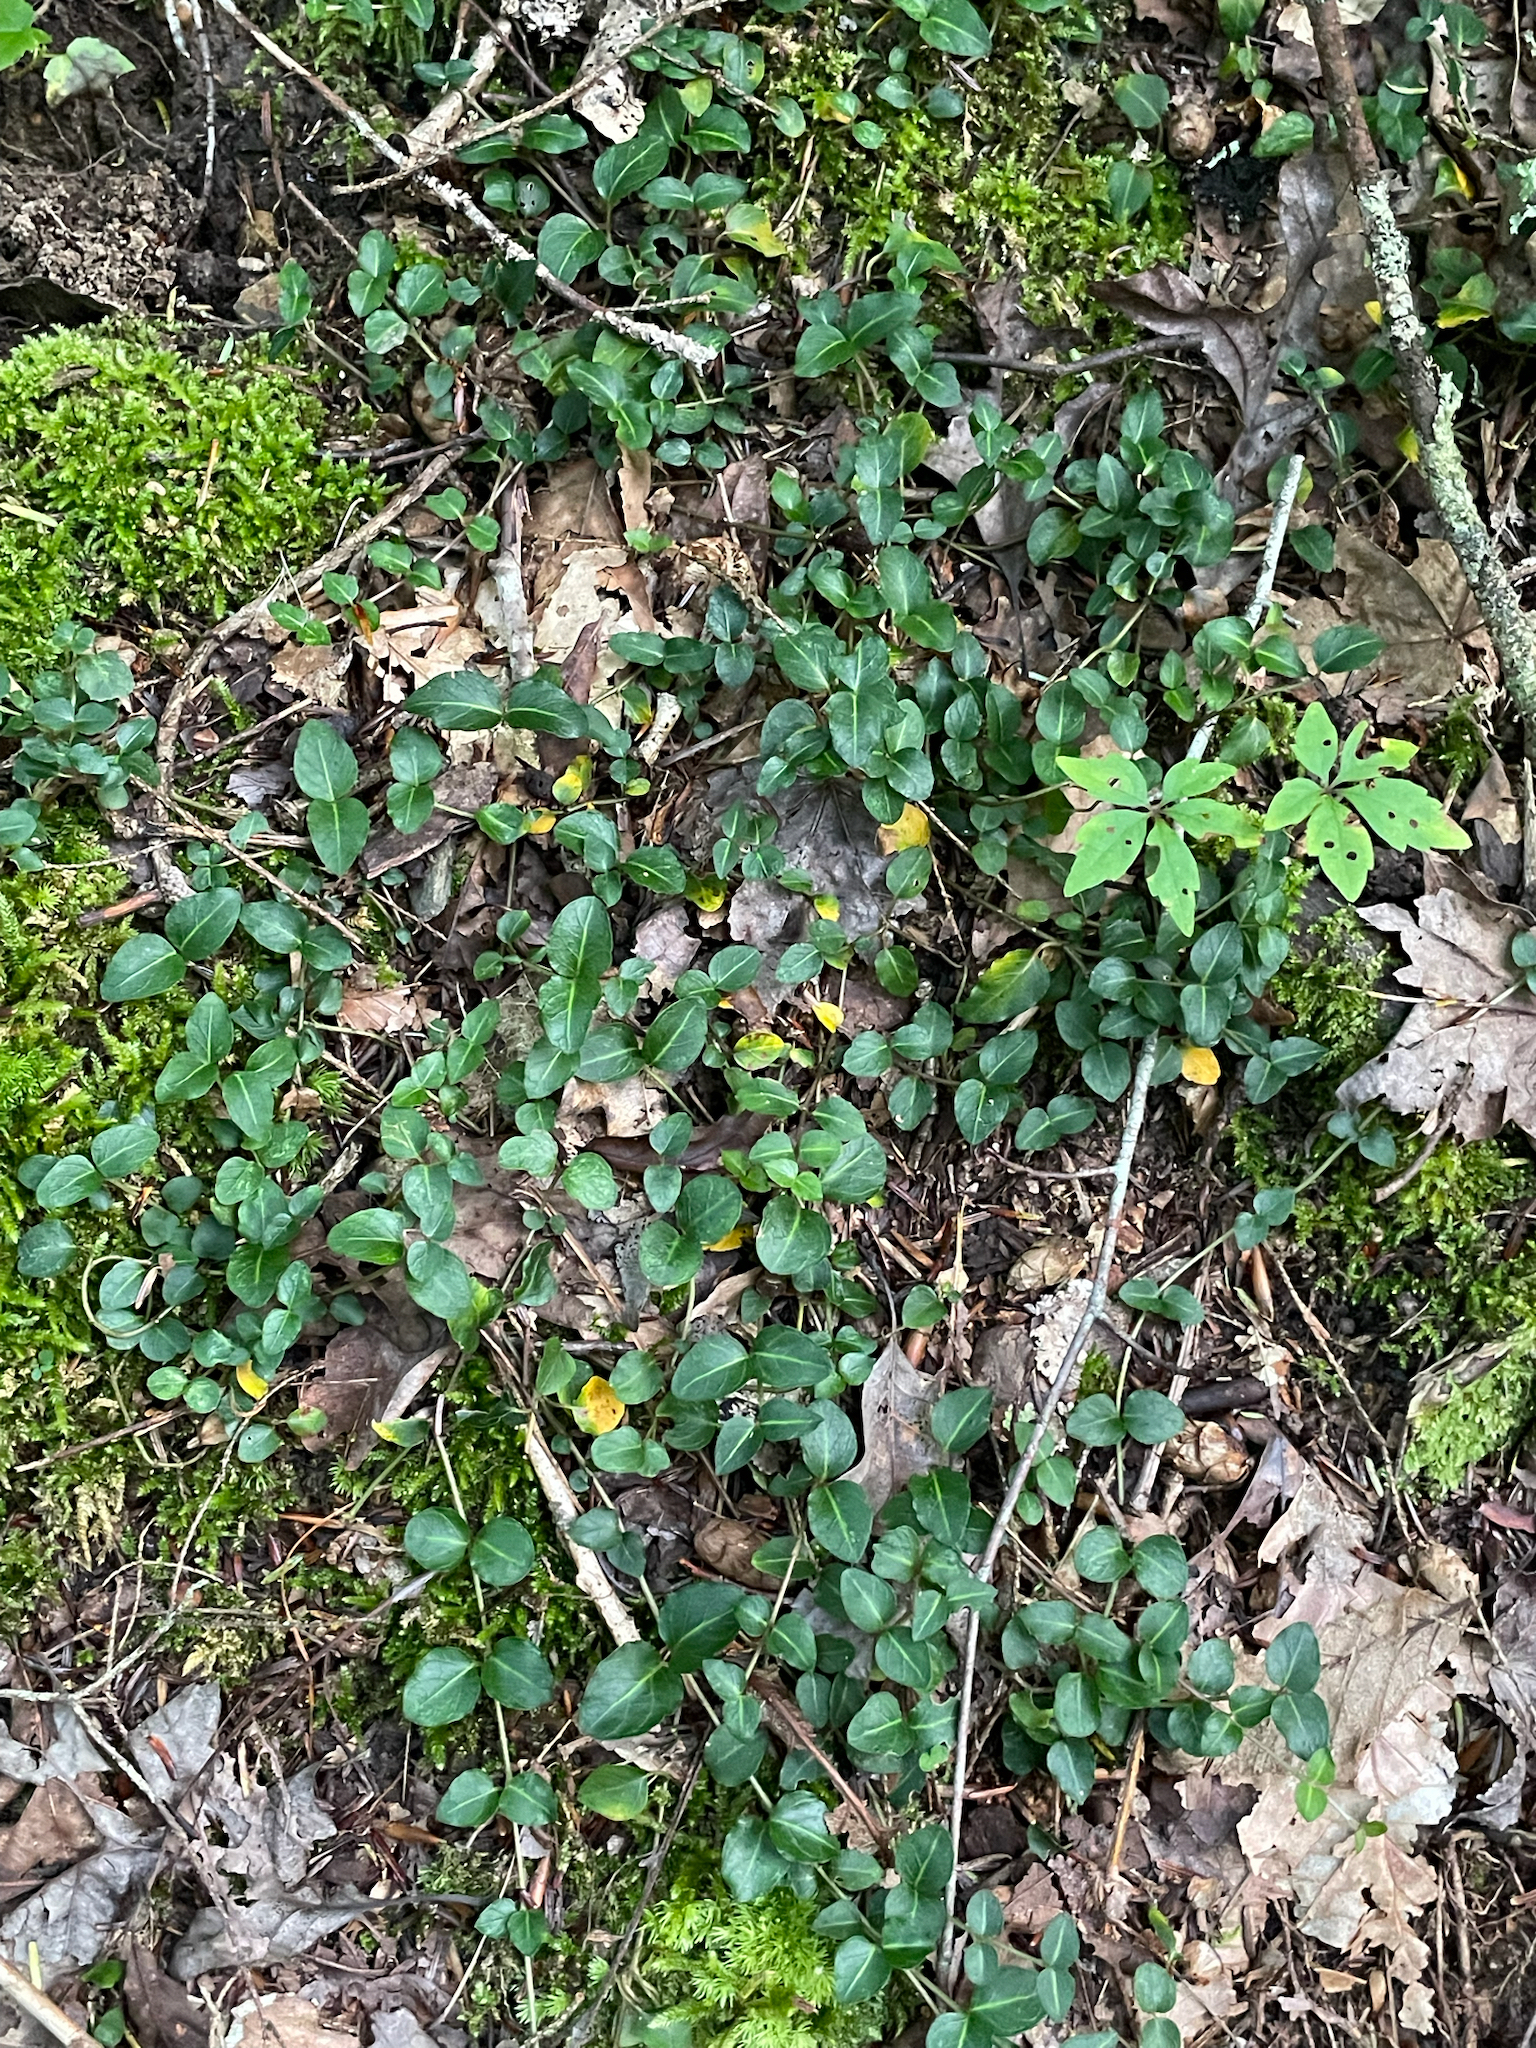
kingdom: Plantae
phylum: Tracheophyta
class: Magnoliopsida
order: Gentianales
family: Rubiaceae
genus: Mitchella
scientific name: Mitchella repens
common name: Partridge-berry
